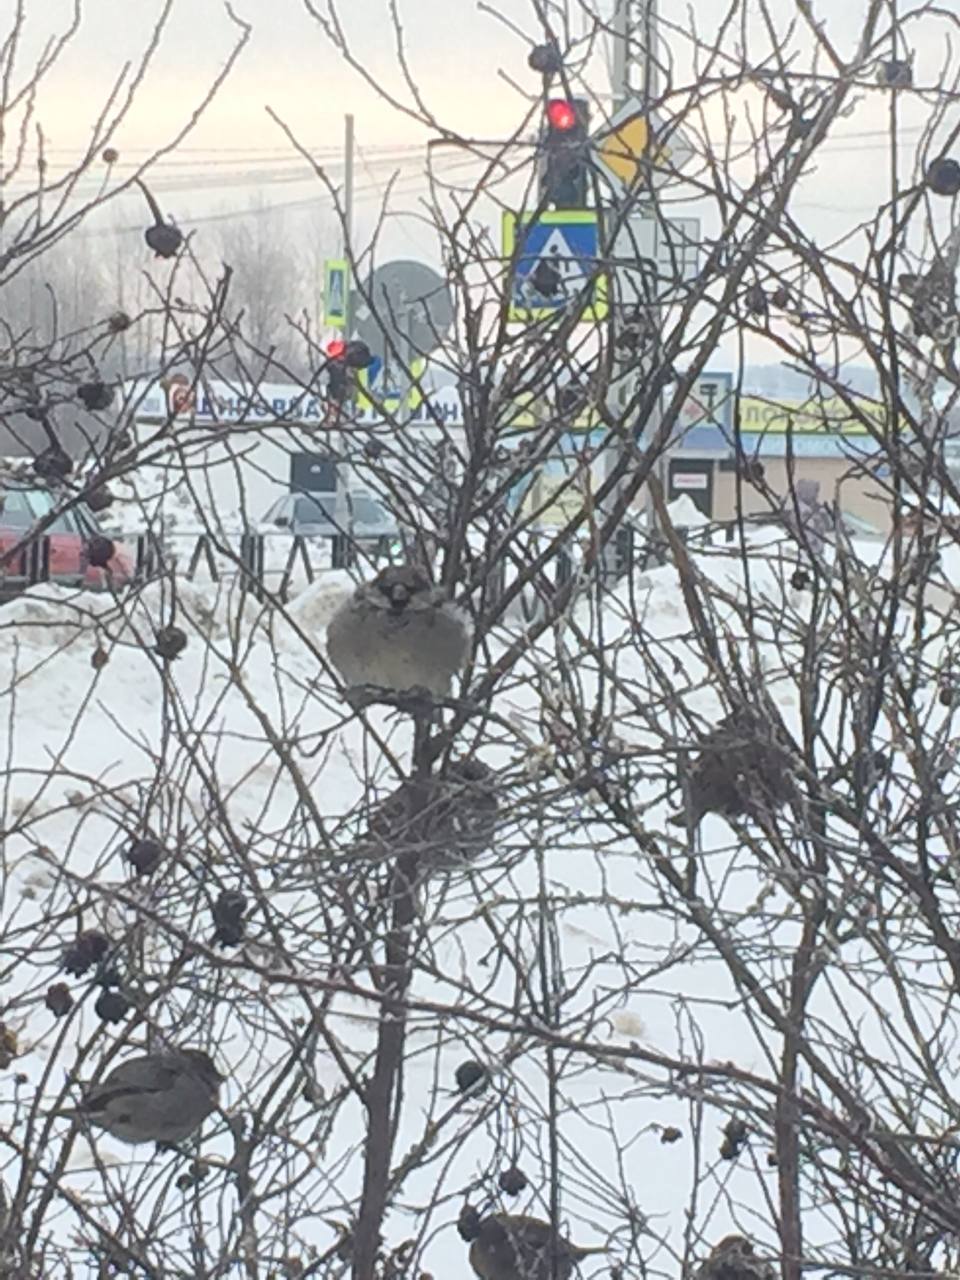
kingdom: Animalia
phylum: Chordata
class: Aves
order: Passeriformes
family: Passeridae
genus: Passer
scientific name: Passer domesticus
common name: House sparrow
